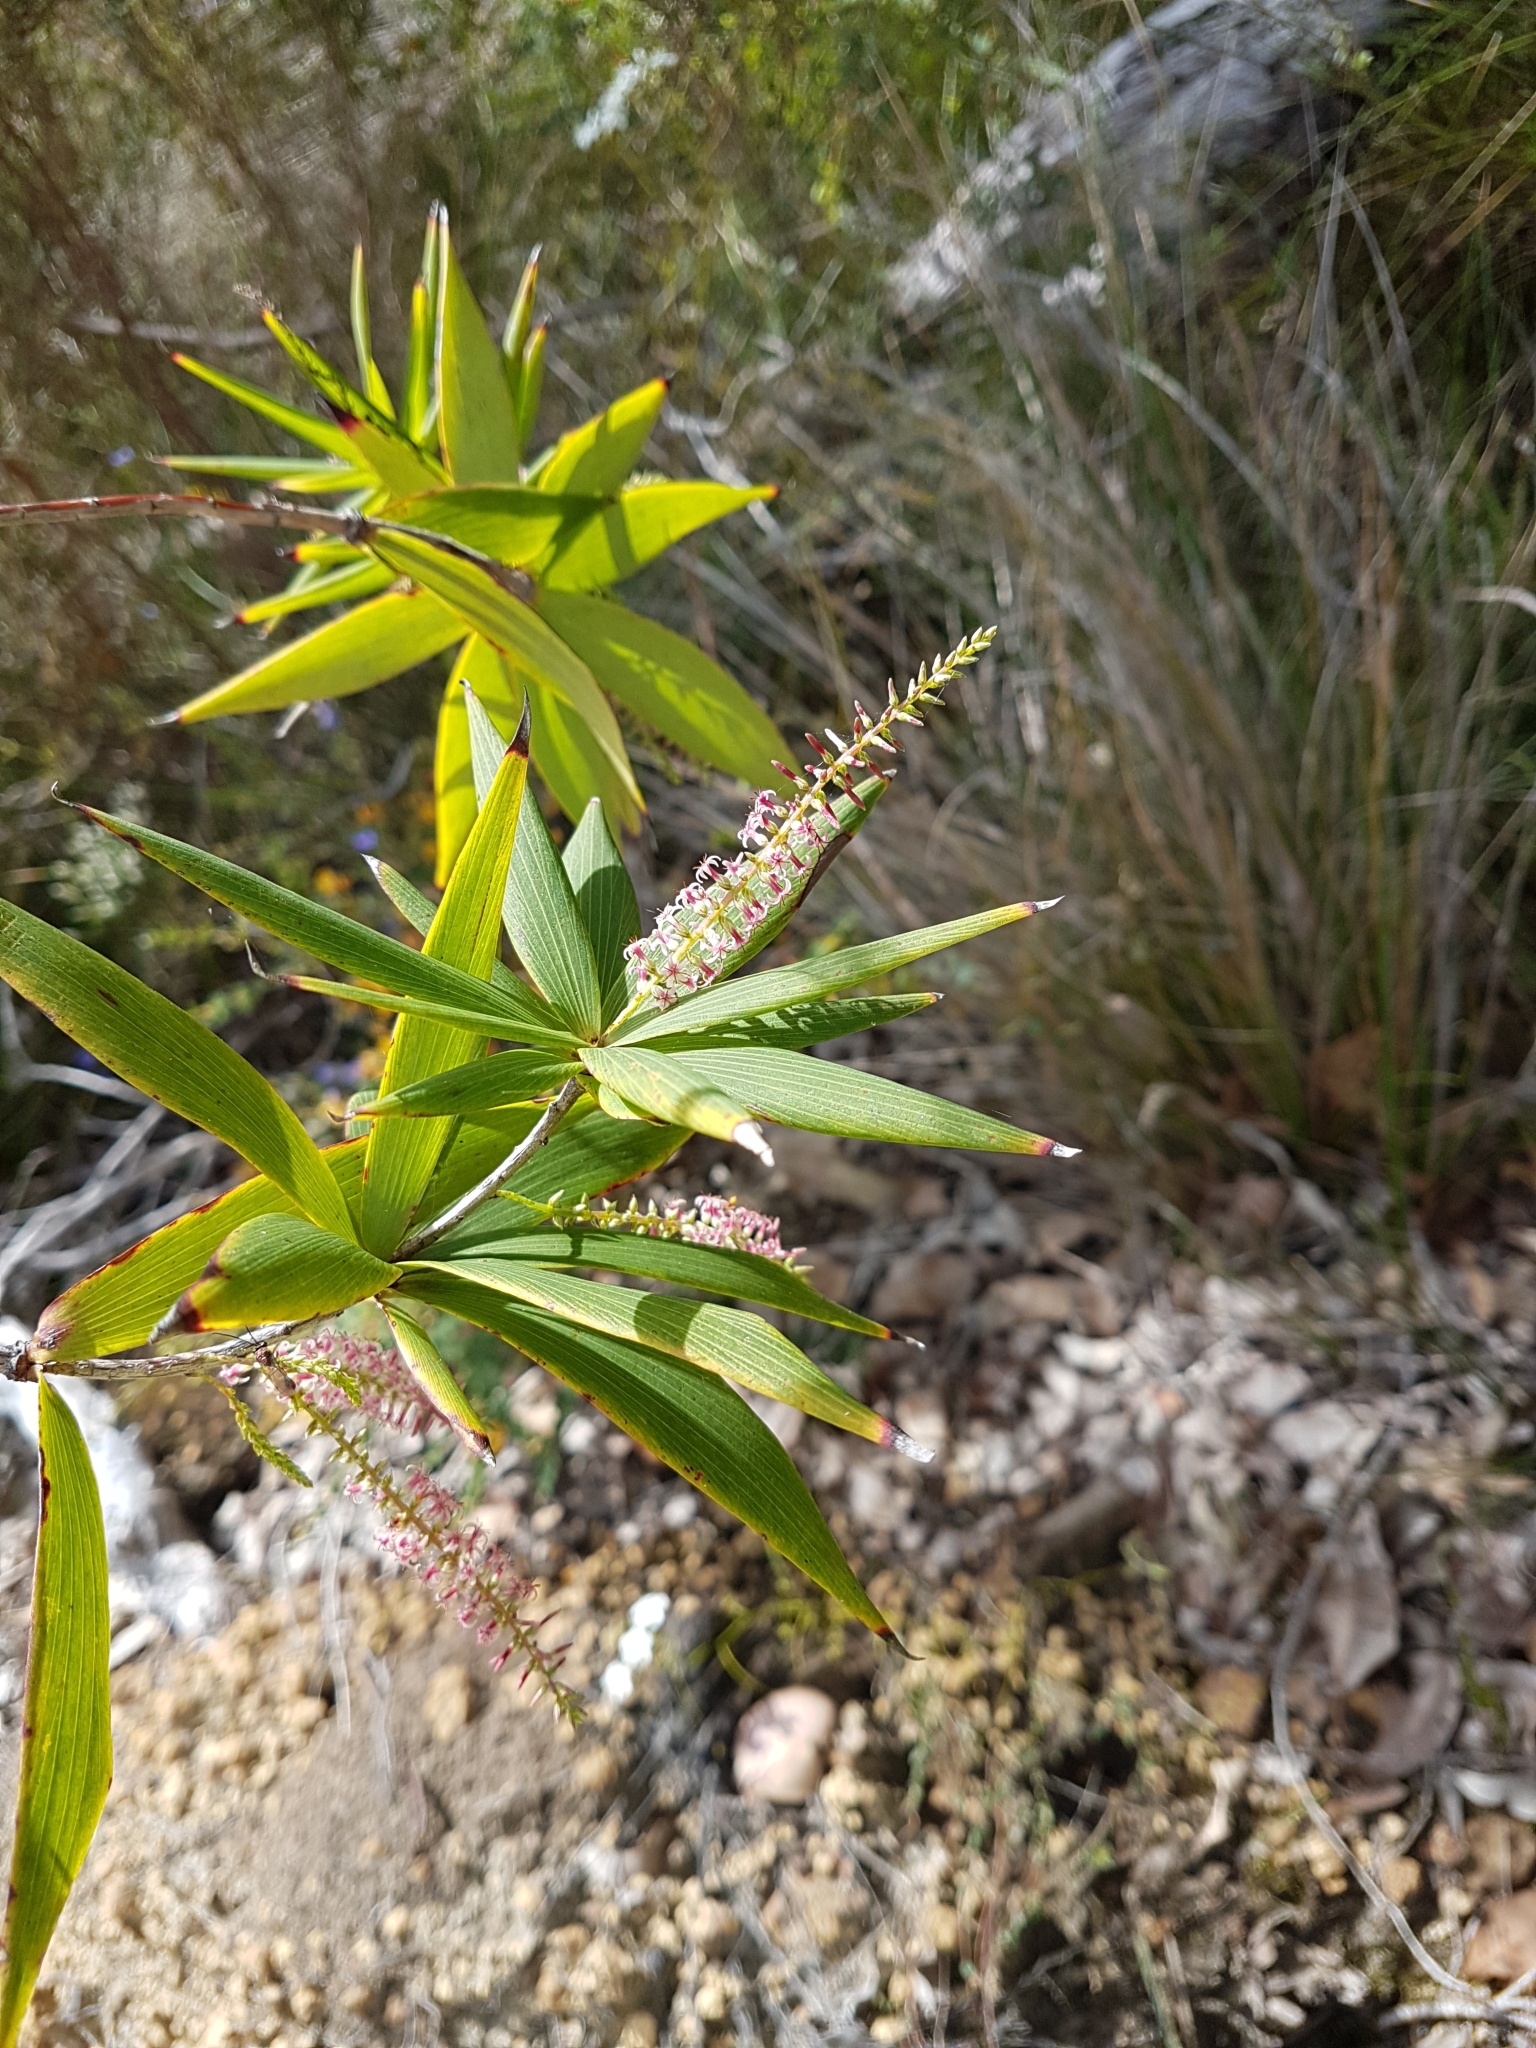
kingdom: Plantae
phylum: Tracheophyta
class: Magnoliopsida
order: Ericales
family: Ericaceae
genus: Leucopogon
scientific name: Leucopogon verticillatus
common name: Tasselshrub
